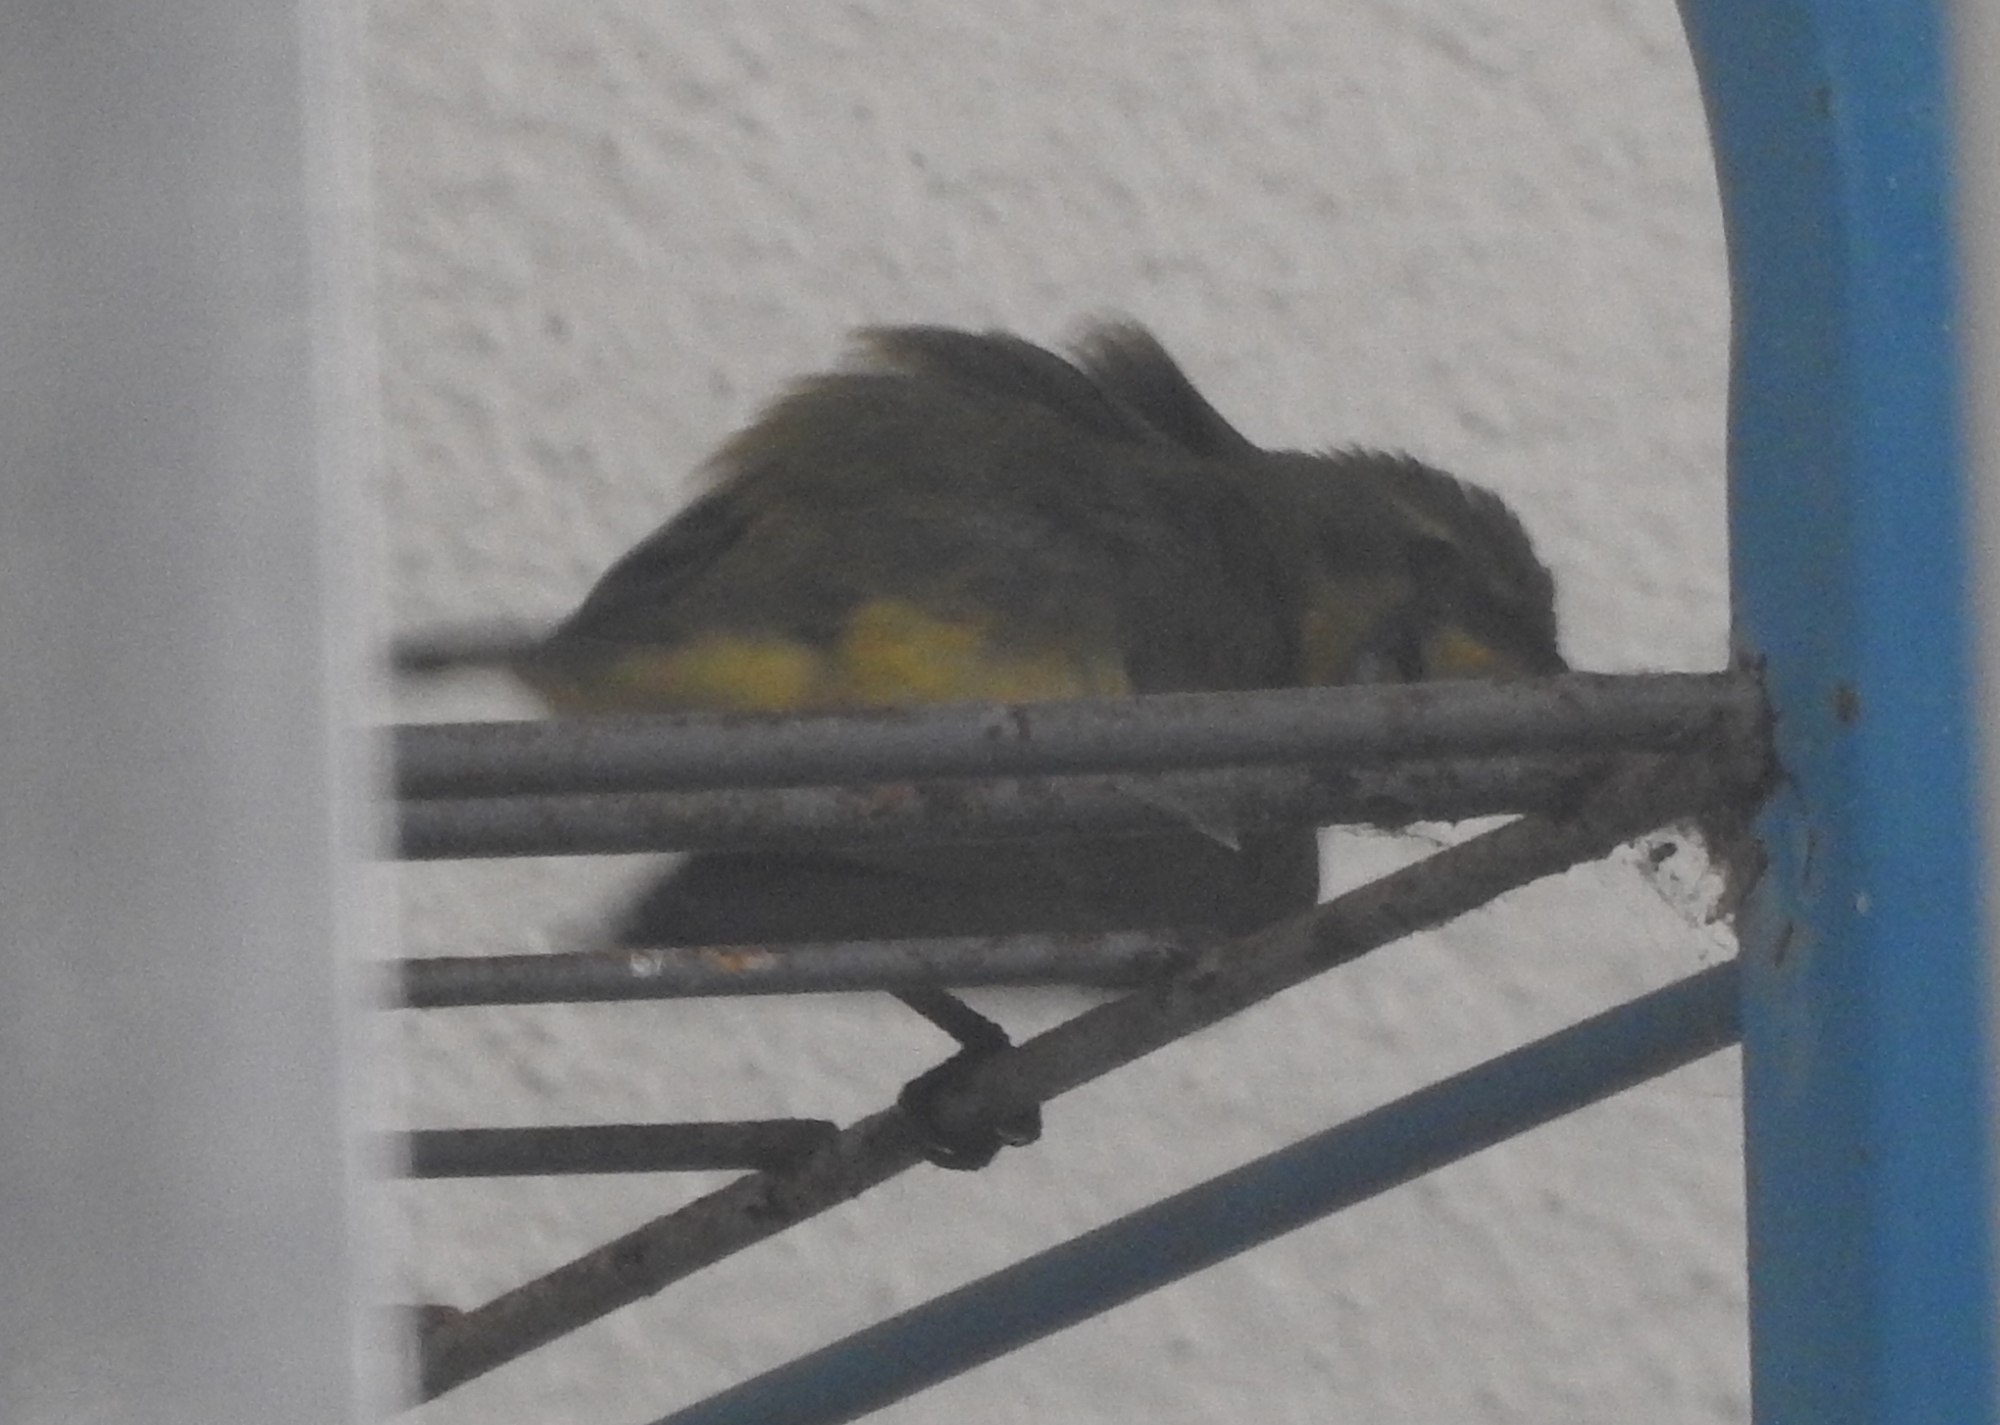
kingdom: Animalia
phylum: Chordata
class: Aves
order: Passeriformes
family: Nectariniidae
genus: Cinnyris
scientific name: Cinnyris
